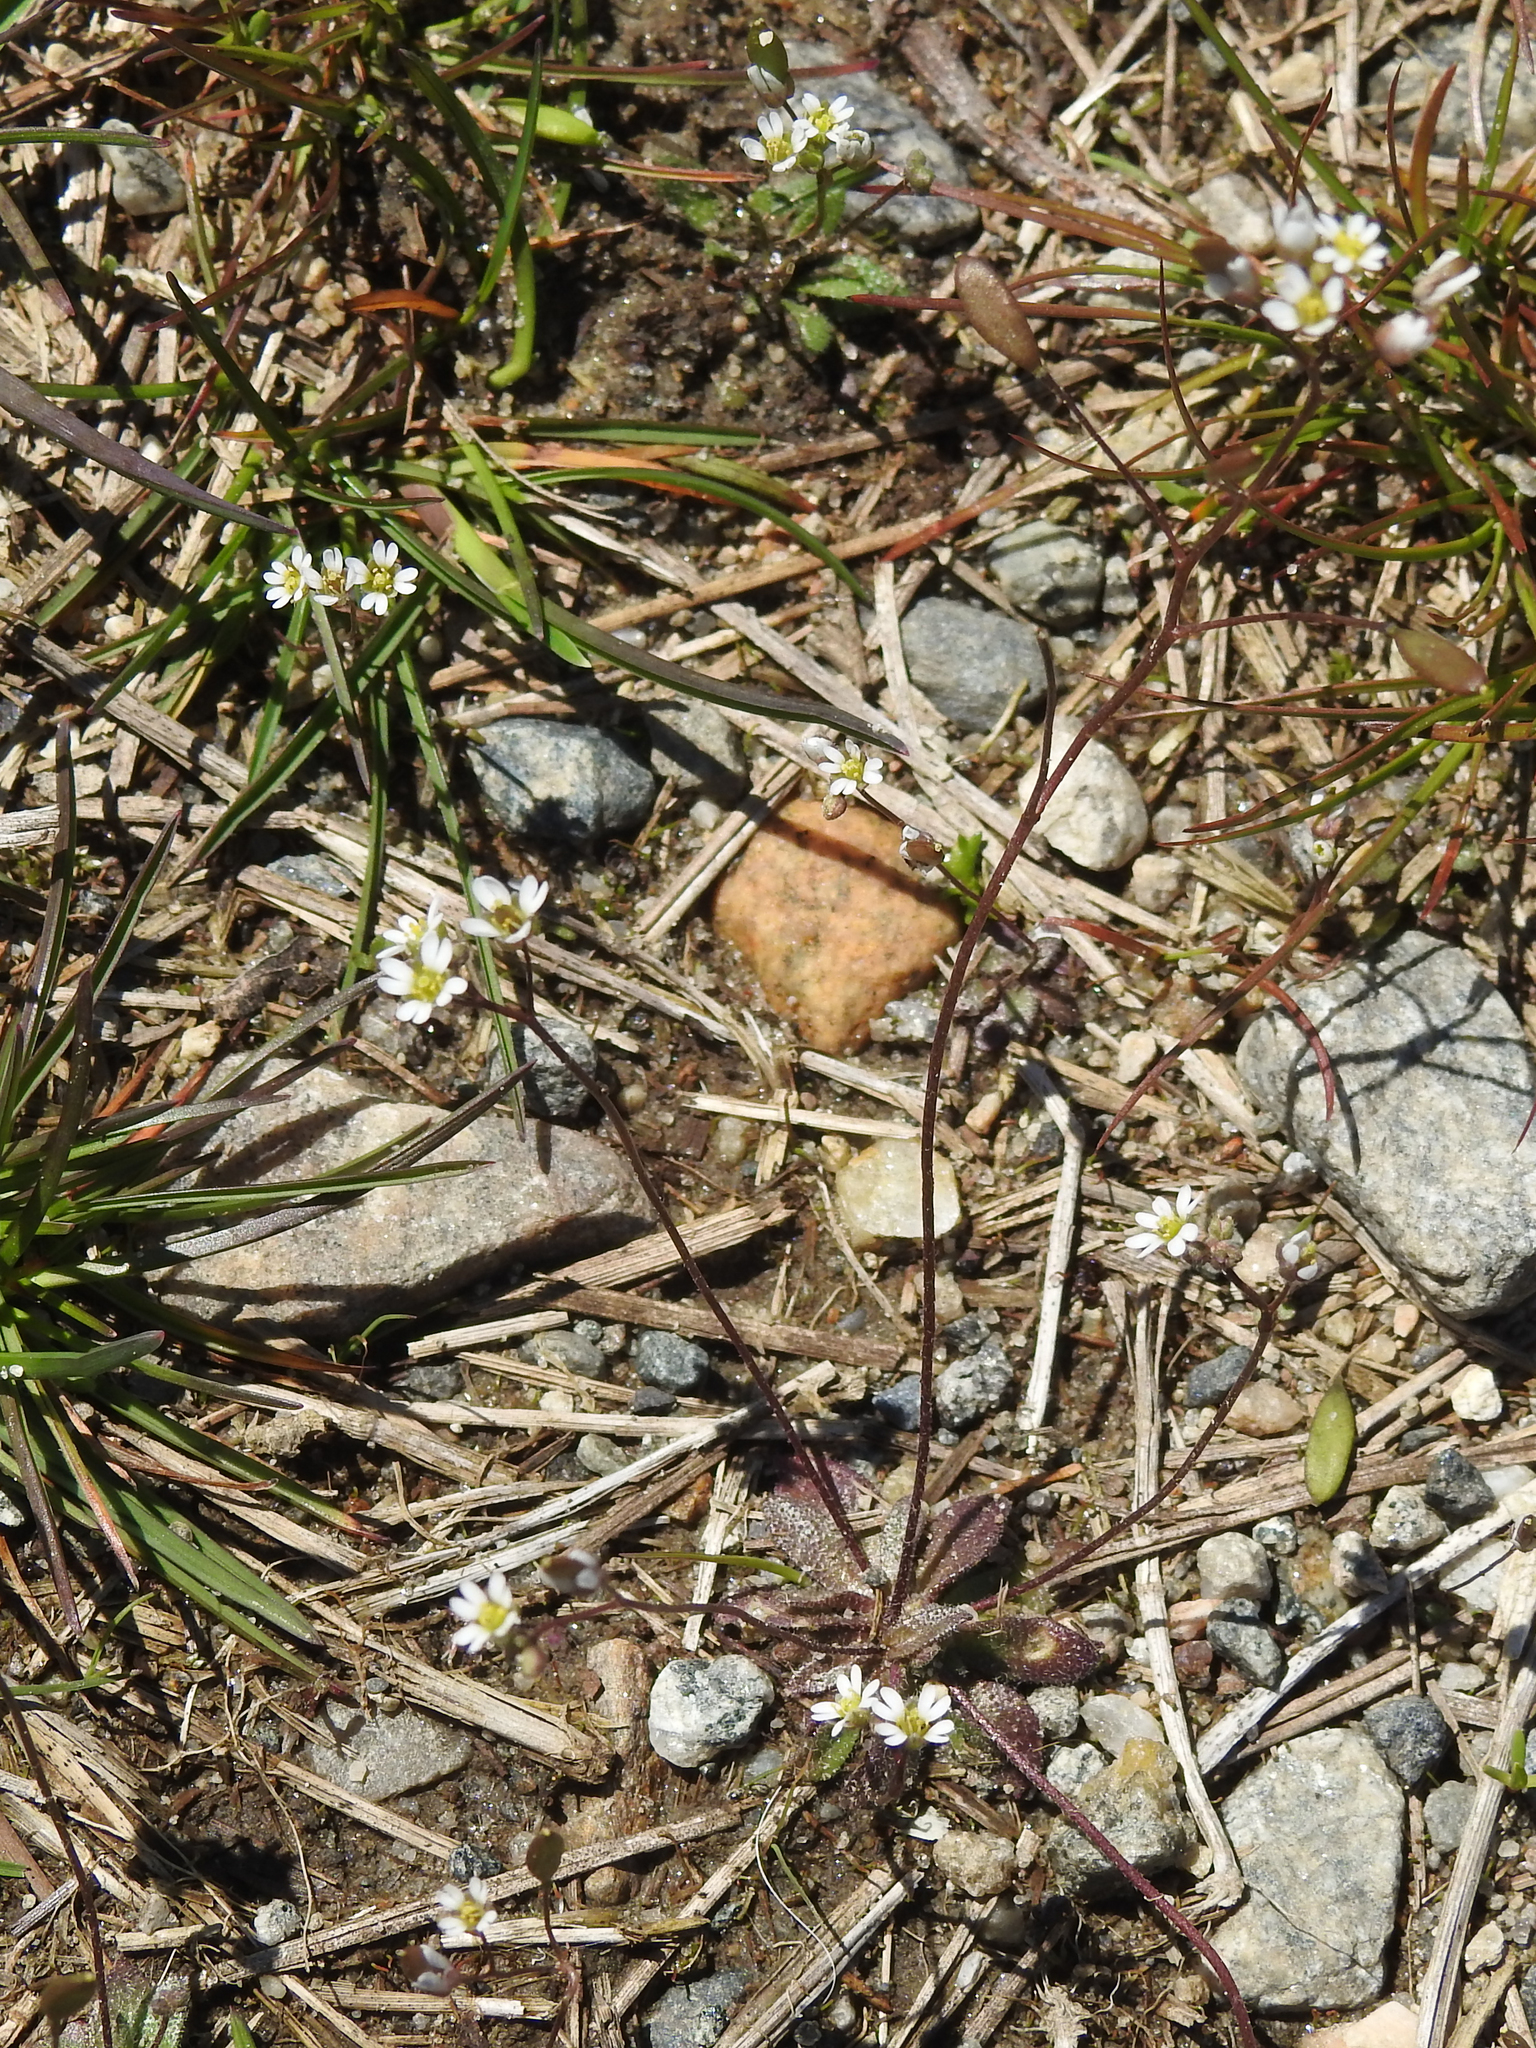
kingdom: Plantae
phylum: Tracheophyta
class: Magnoliopsida
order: Brassicales
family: Brassicaceae
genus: Draba
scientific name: Draba verna
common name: Spring draba
